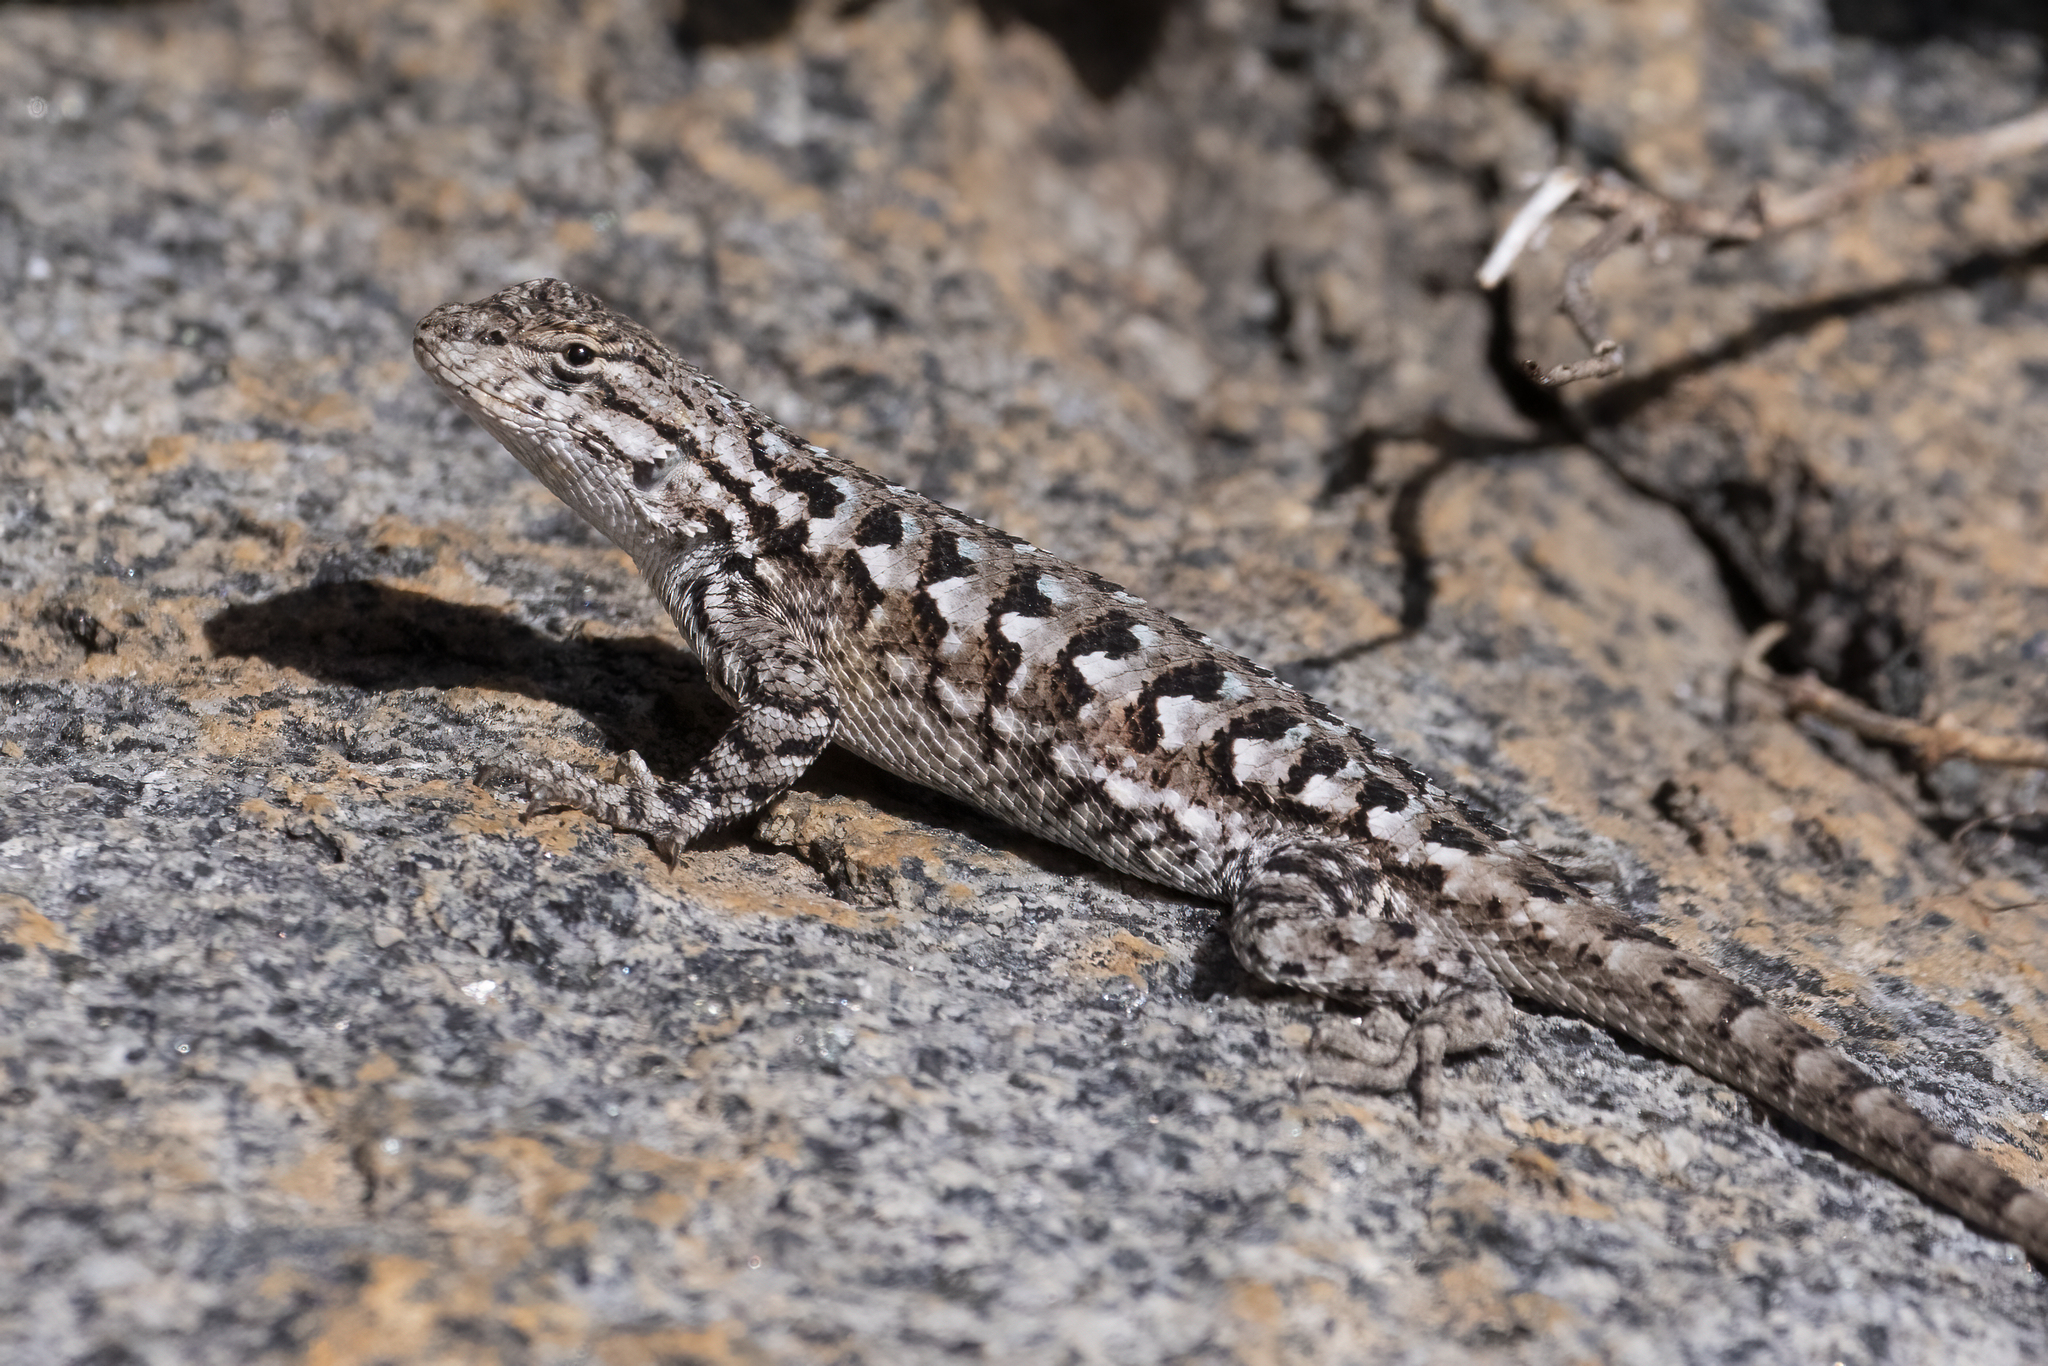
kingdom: Animalia
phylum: Chordata
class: Squamata
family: Phrynosomatidae
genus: Sceloporus
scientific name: Sceloporus occidentalis
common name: Western fence lizard
